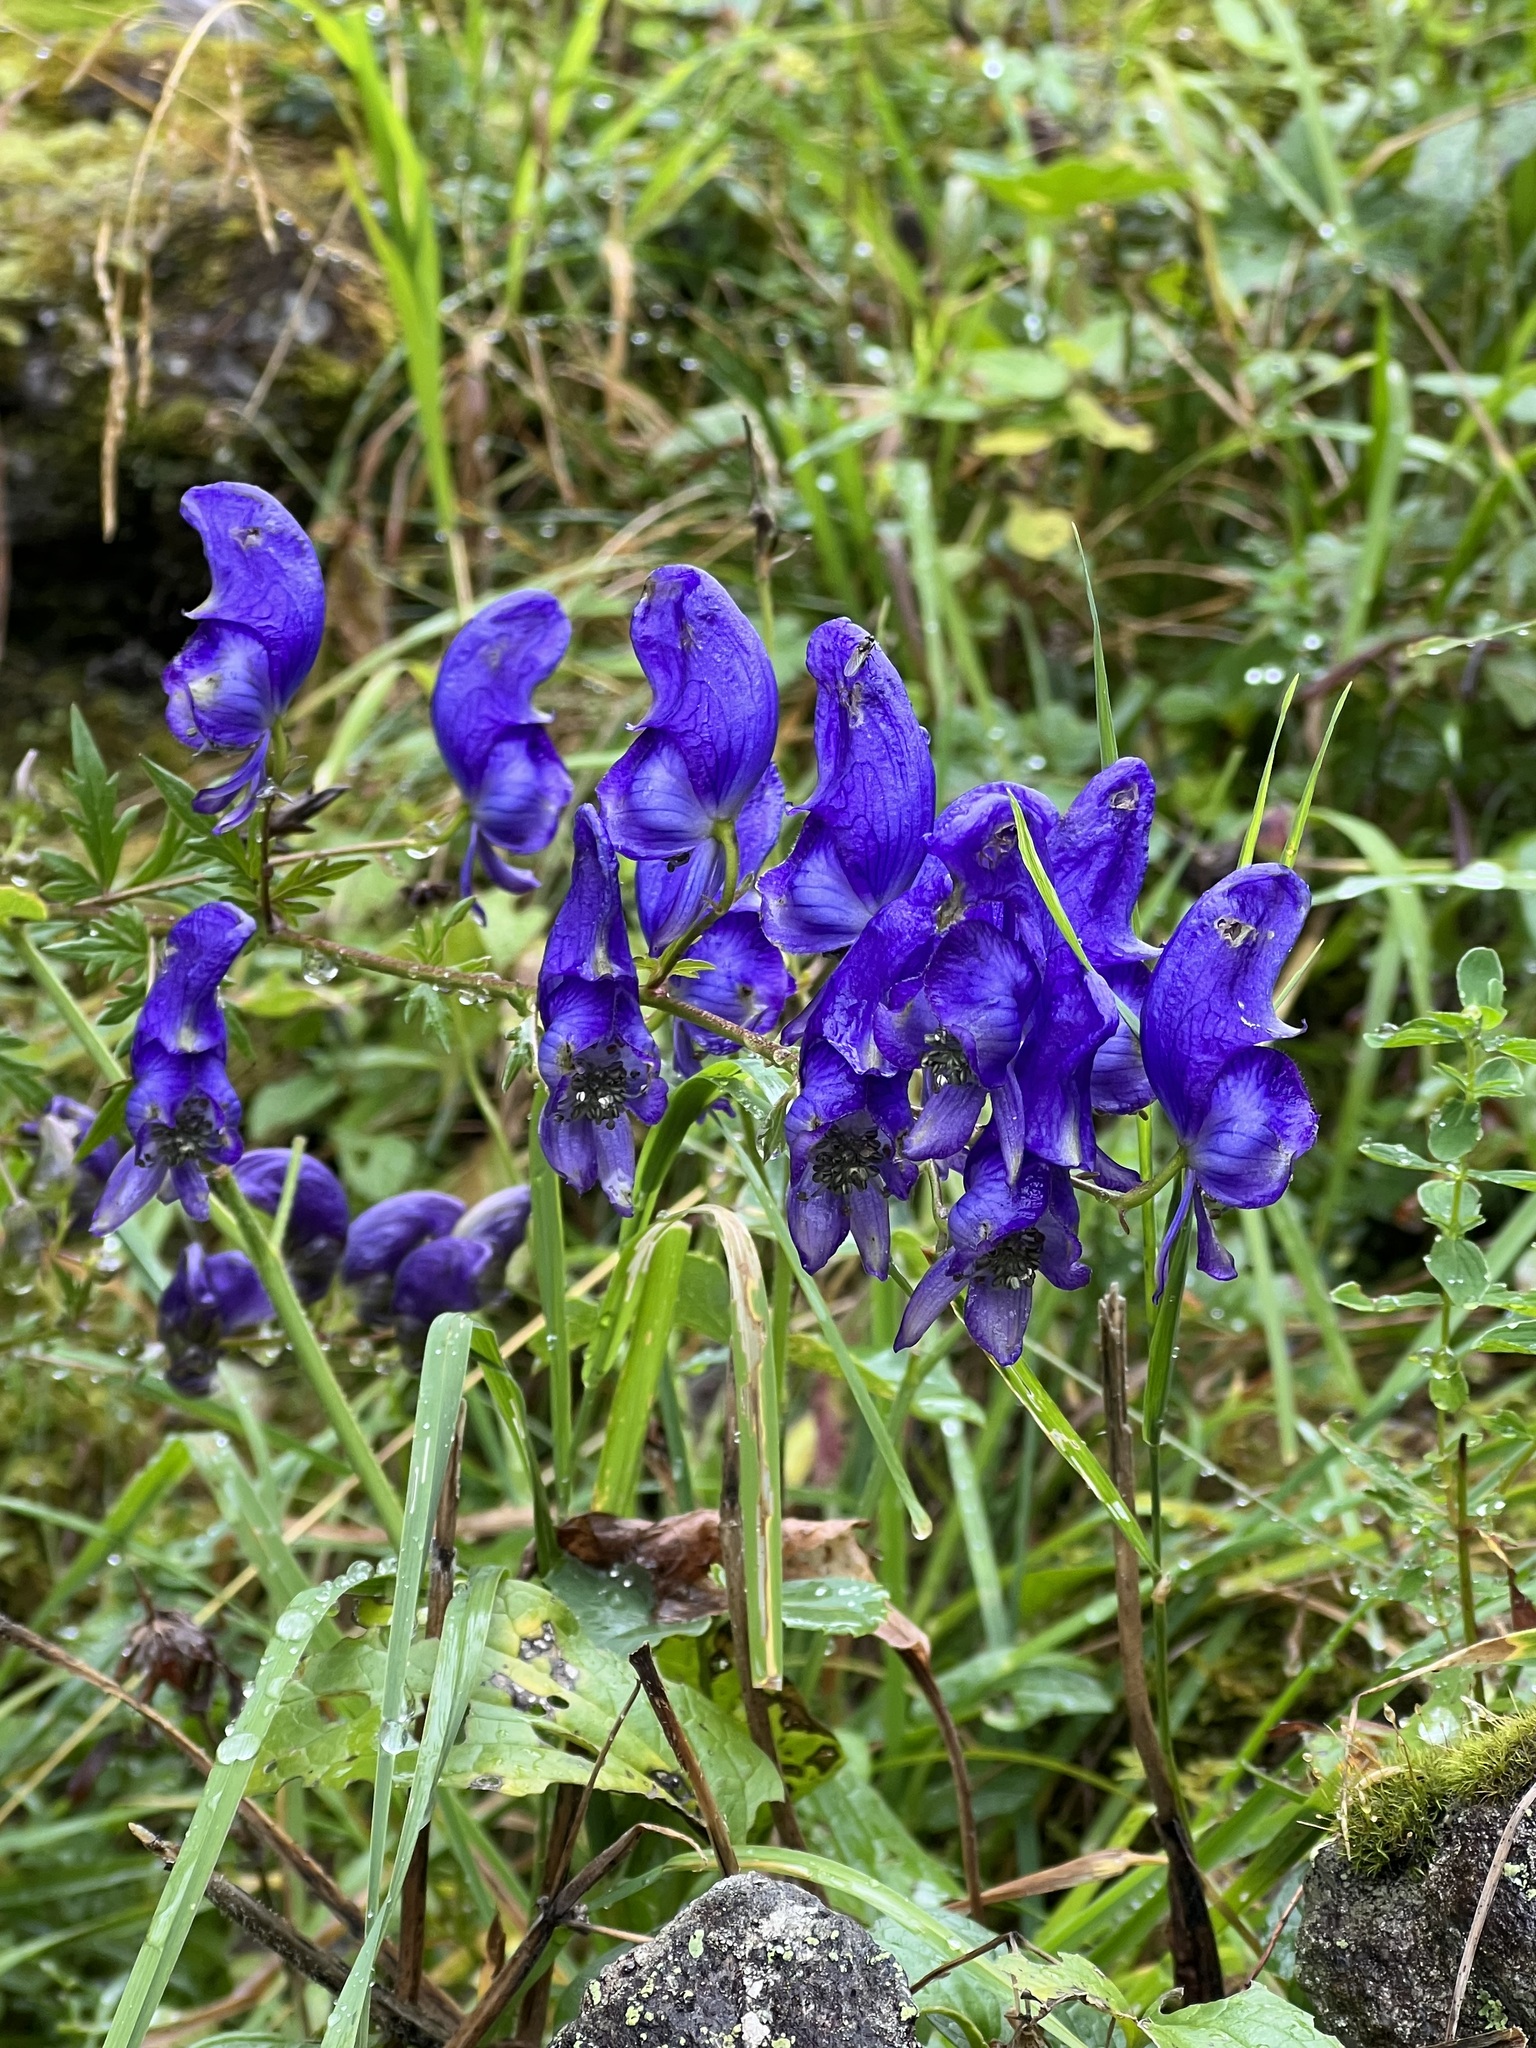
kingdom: Plantae
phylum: Tracheophyta
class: Magnoliopsida
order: Ranunculales
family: Ranunculaceae
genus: Aconitum
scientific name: Aconitum variegatum
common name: Manchurian monkshood
